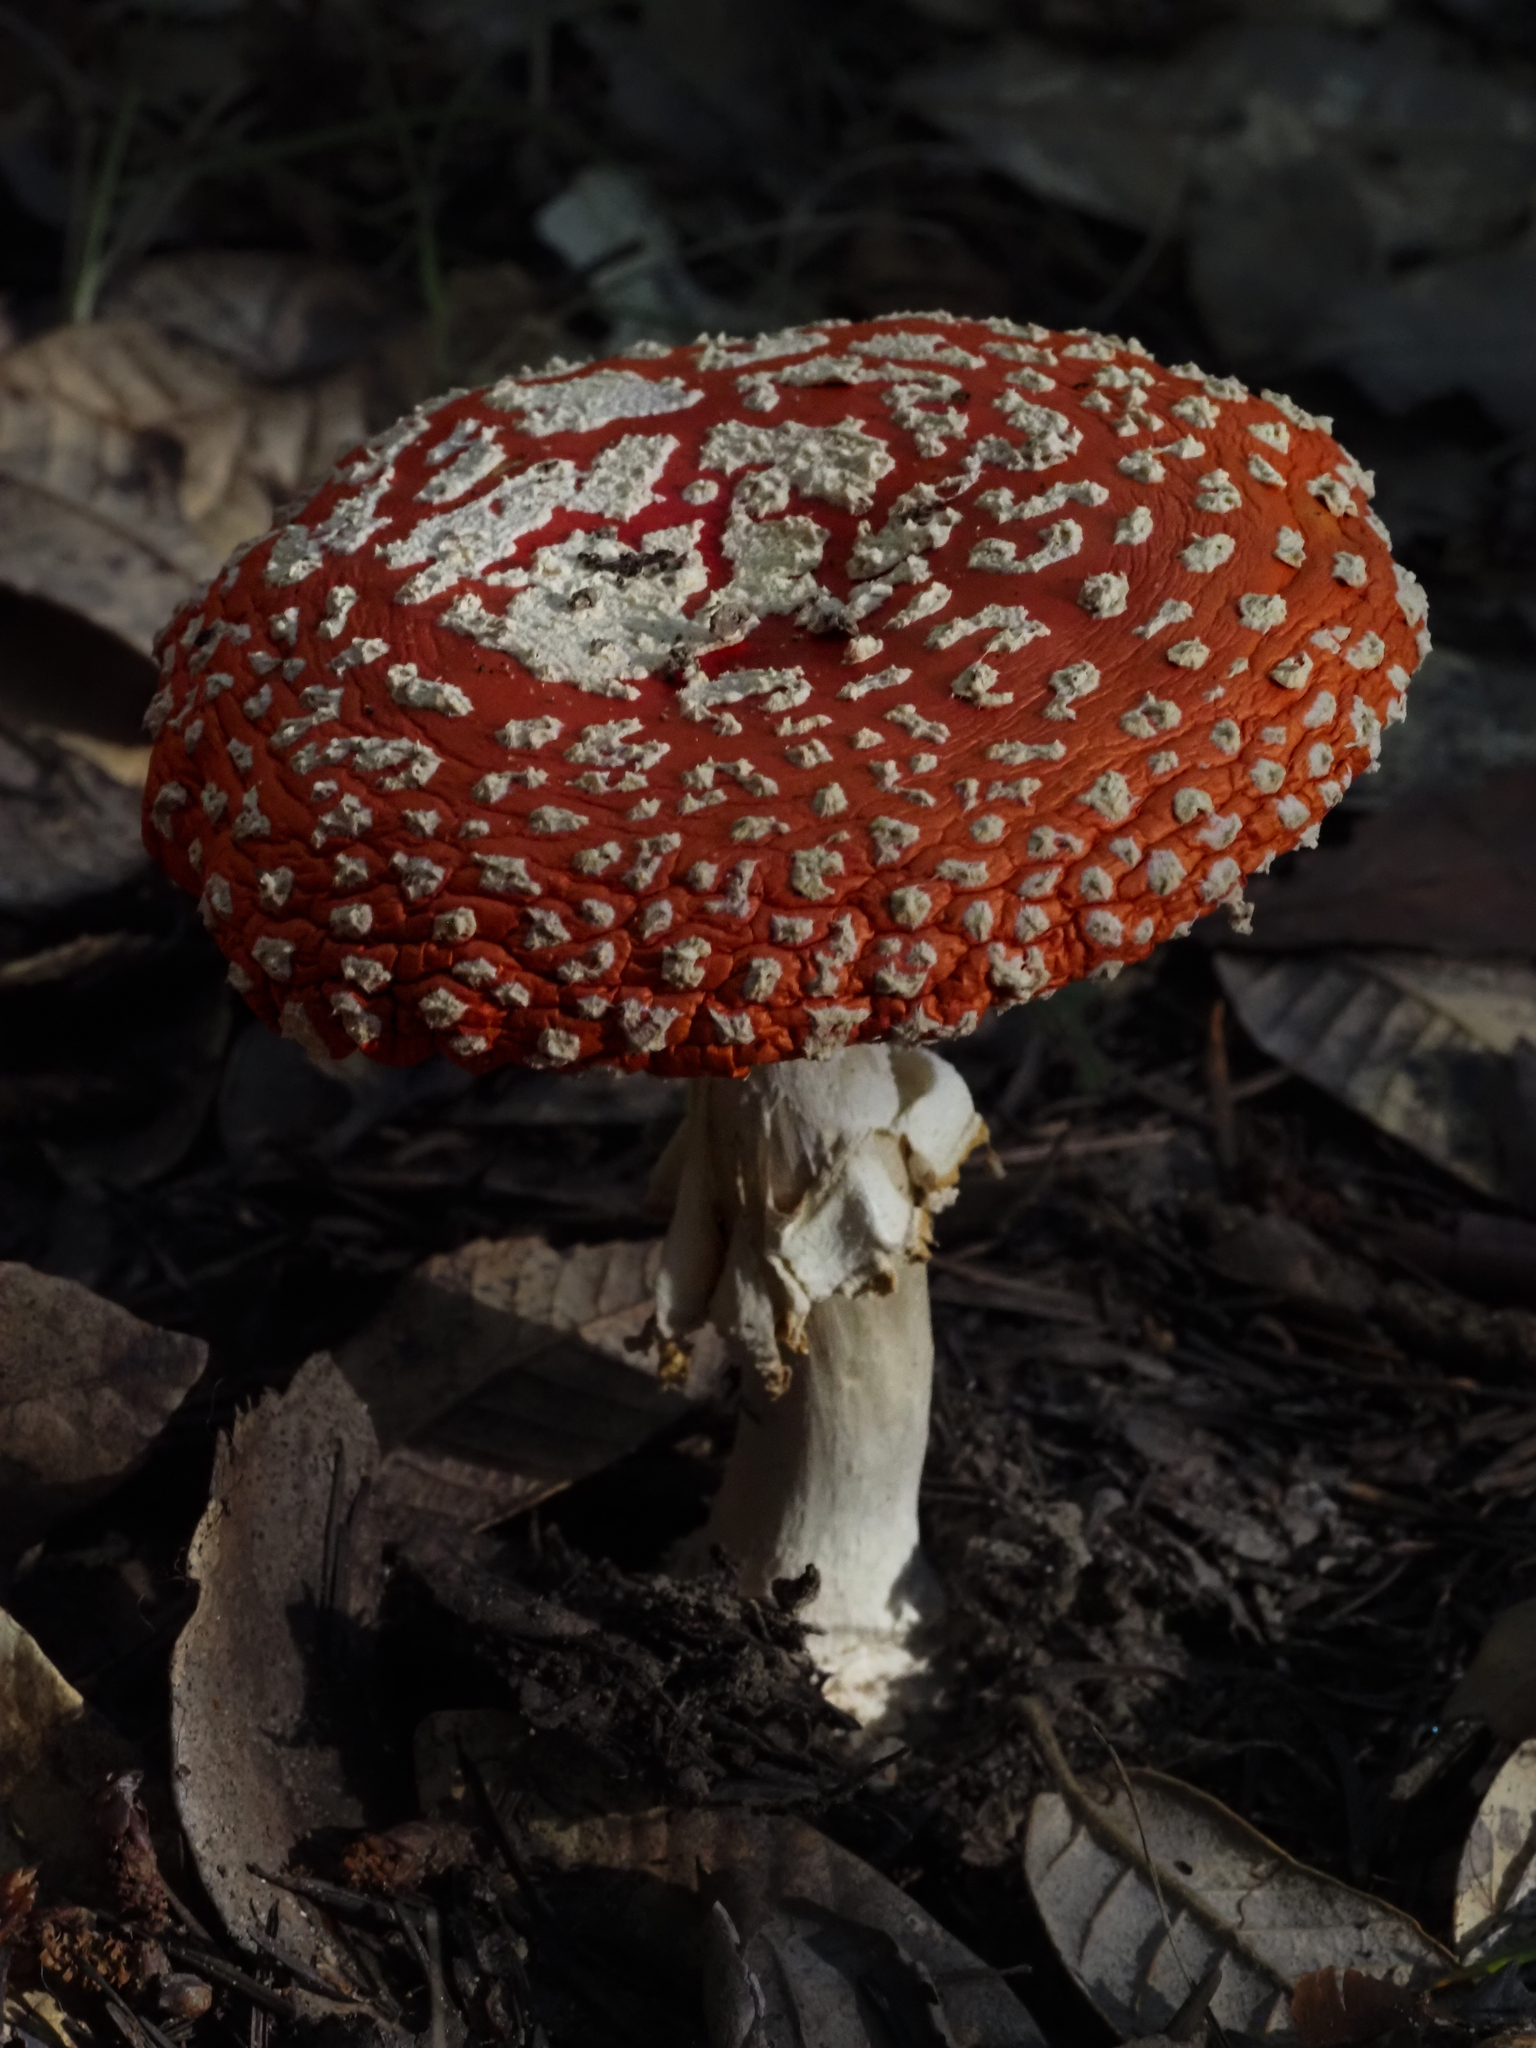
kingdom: Fungi
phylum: Basidiomycota
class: Agaricomycetes
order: Agaricales
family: Amanitaceae
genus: Amanita
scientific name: Amanita muscaria
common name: Fly agaric
